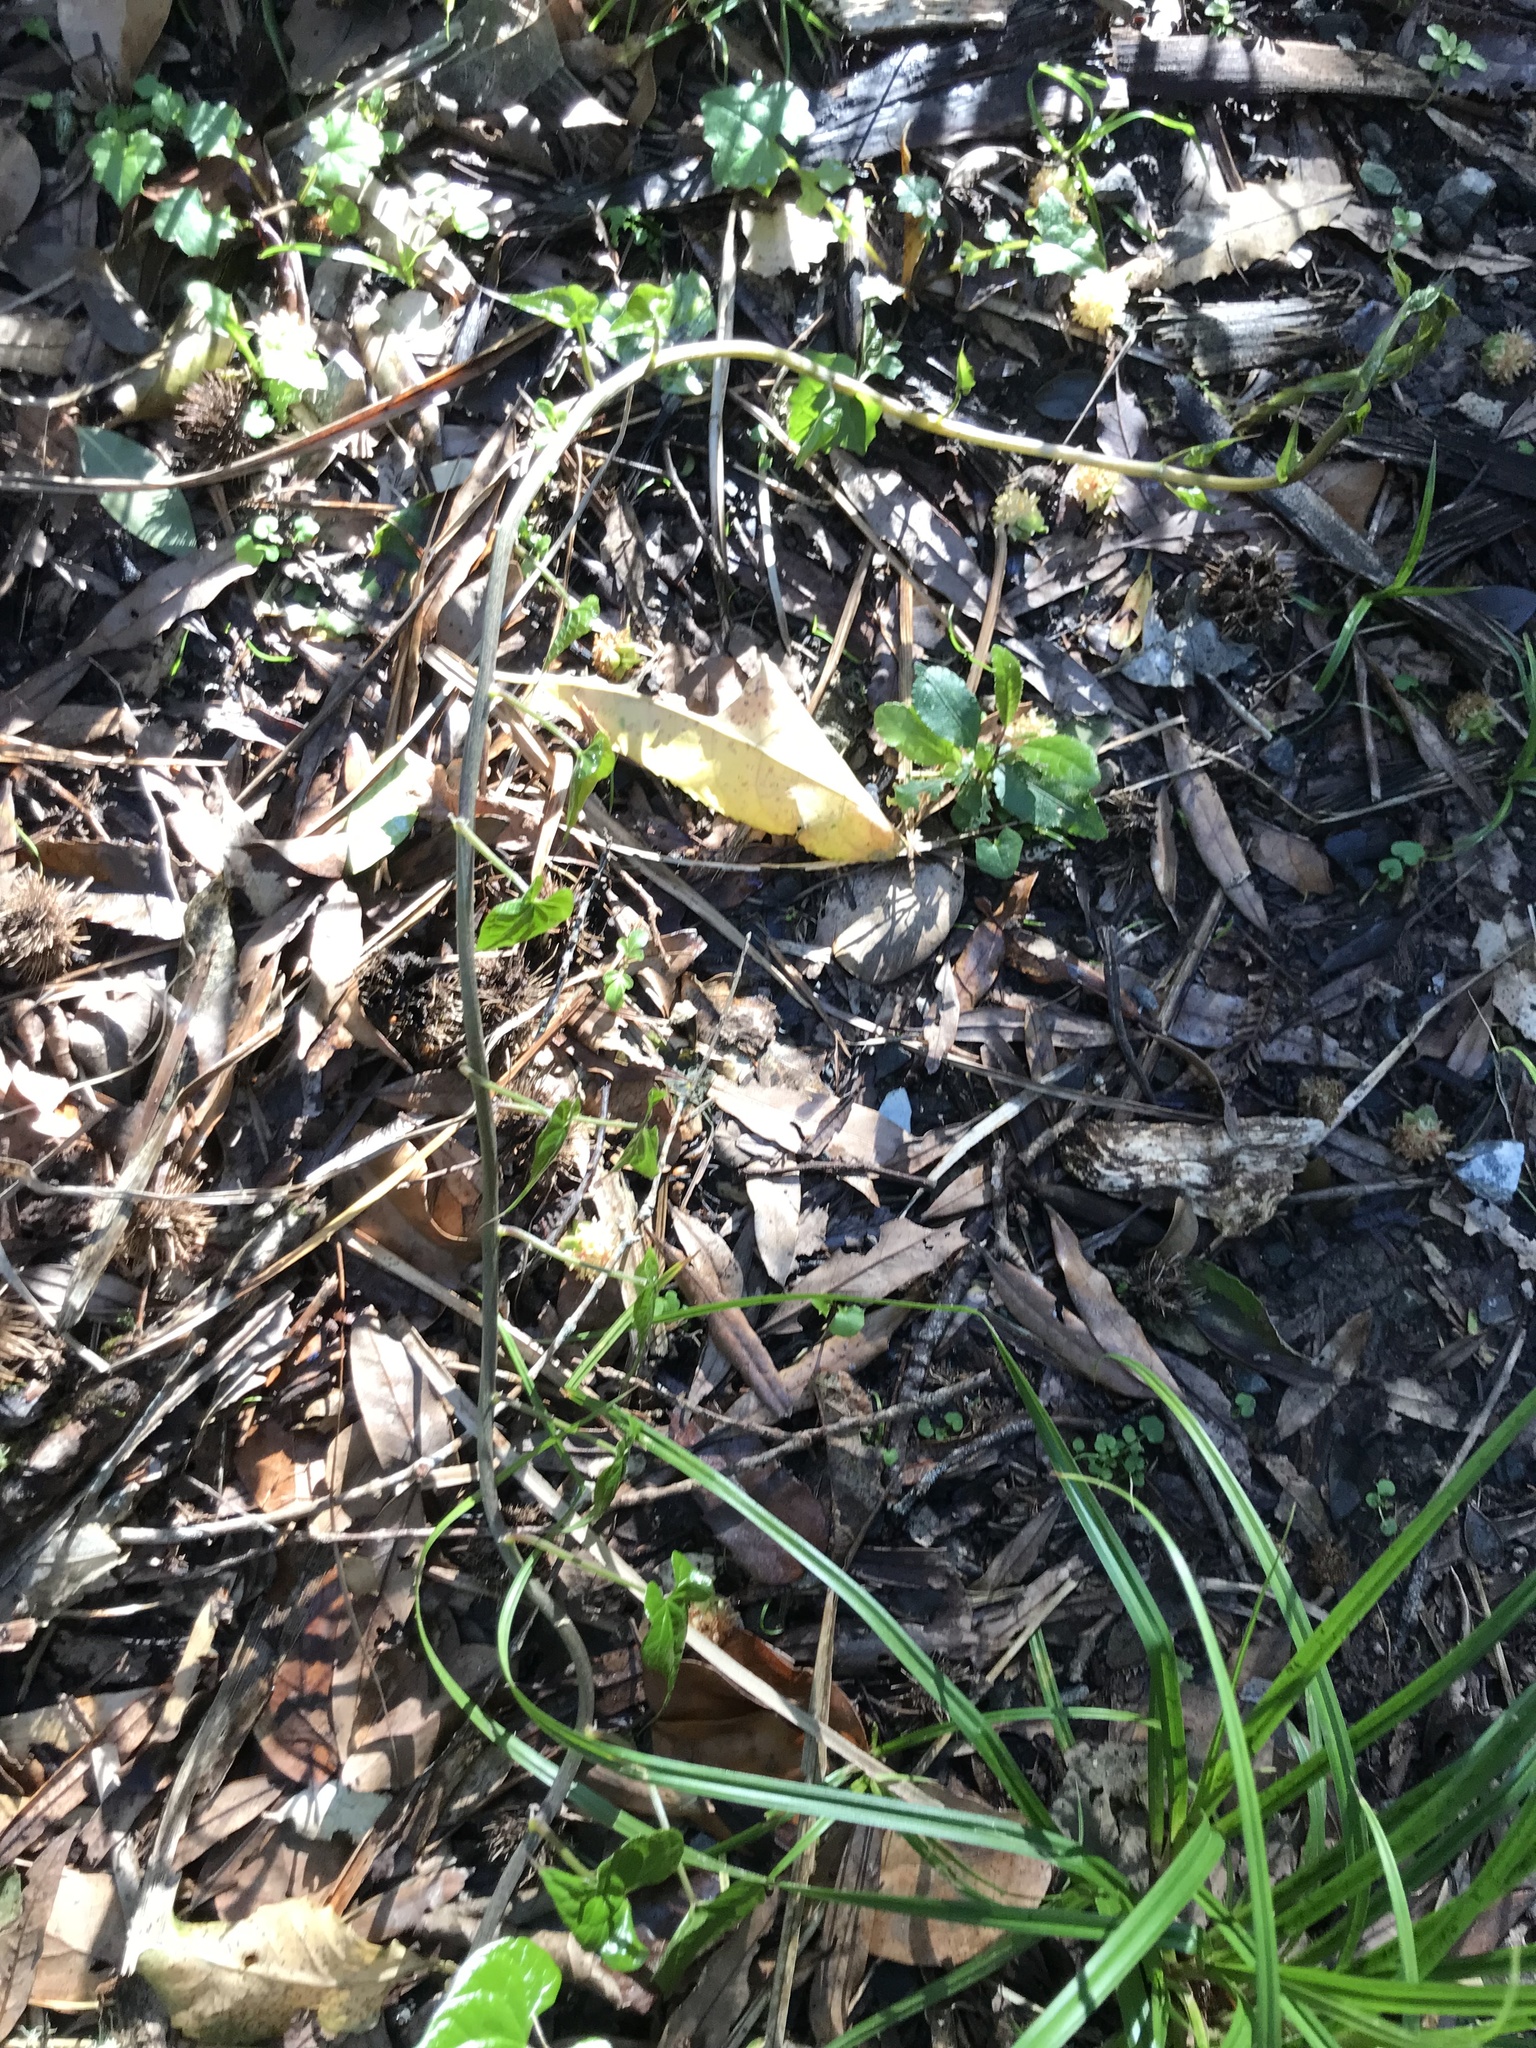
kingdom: Plantae
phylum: Tracheophyta
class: Liliopsida
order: Dioscoreales
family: Dioscoreaceae
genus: Dioscorea
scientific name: Dioscorea communis
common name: Black-bindweed
